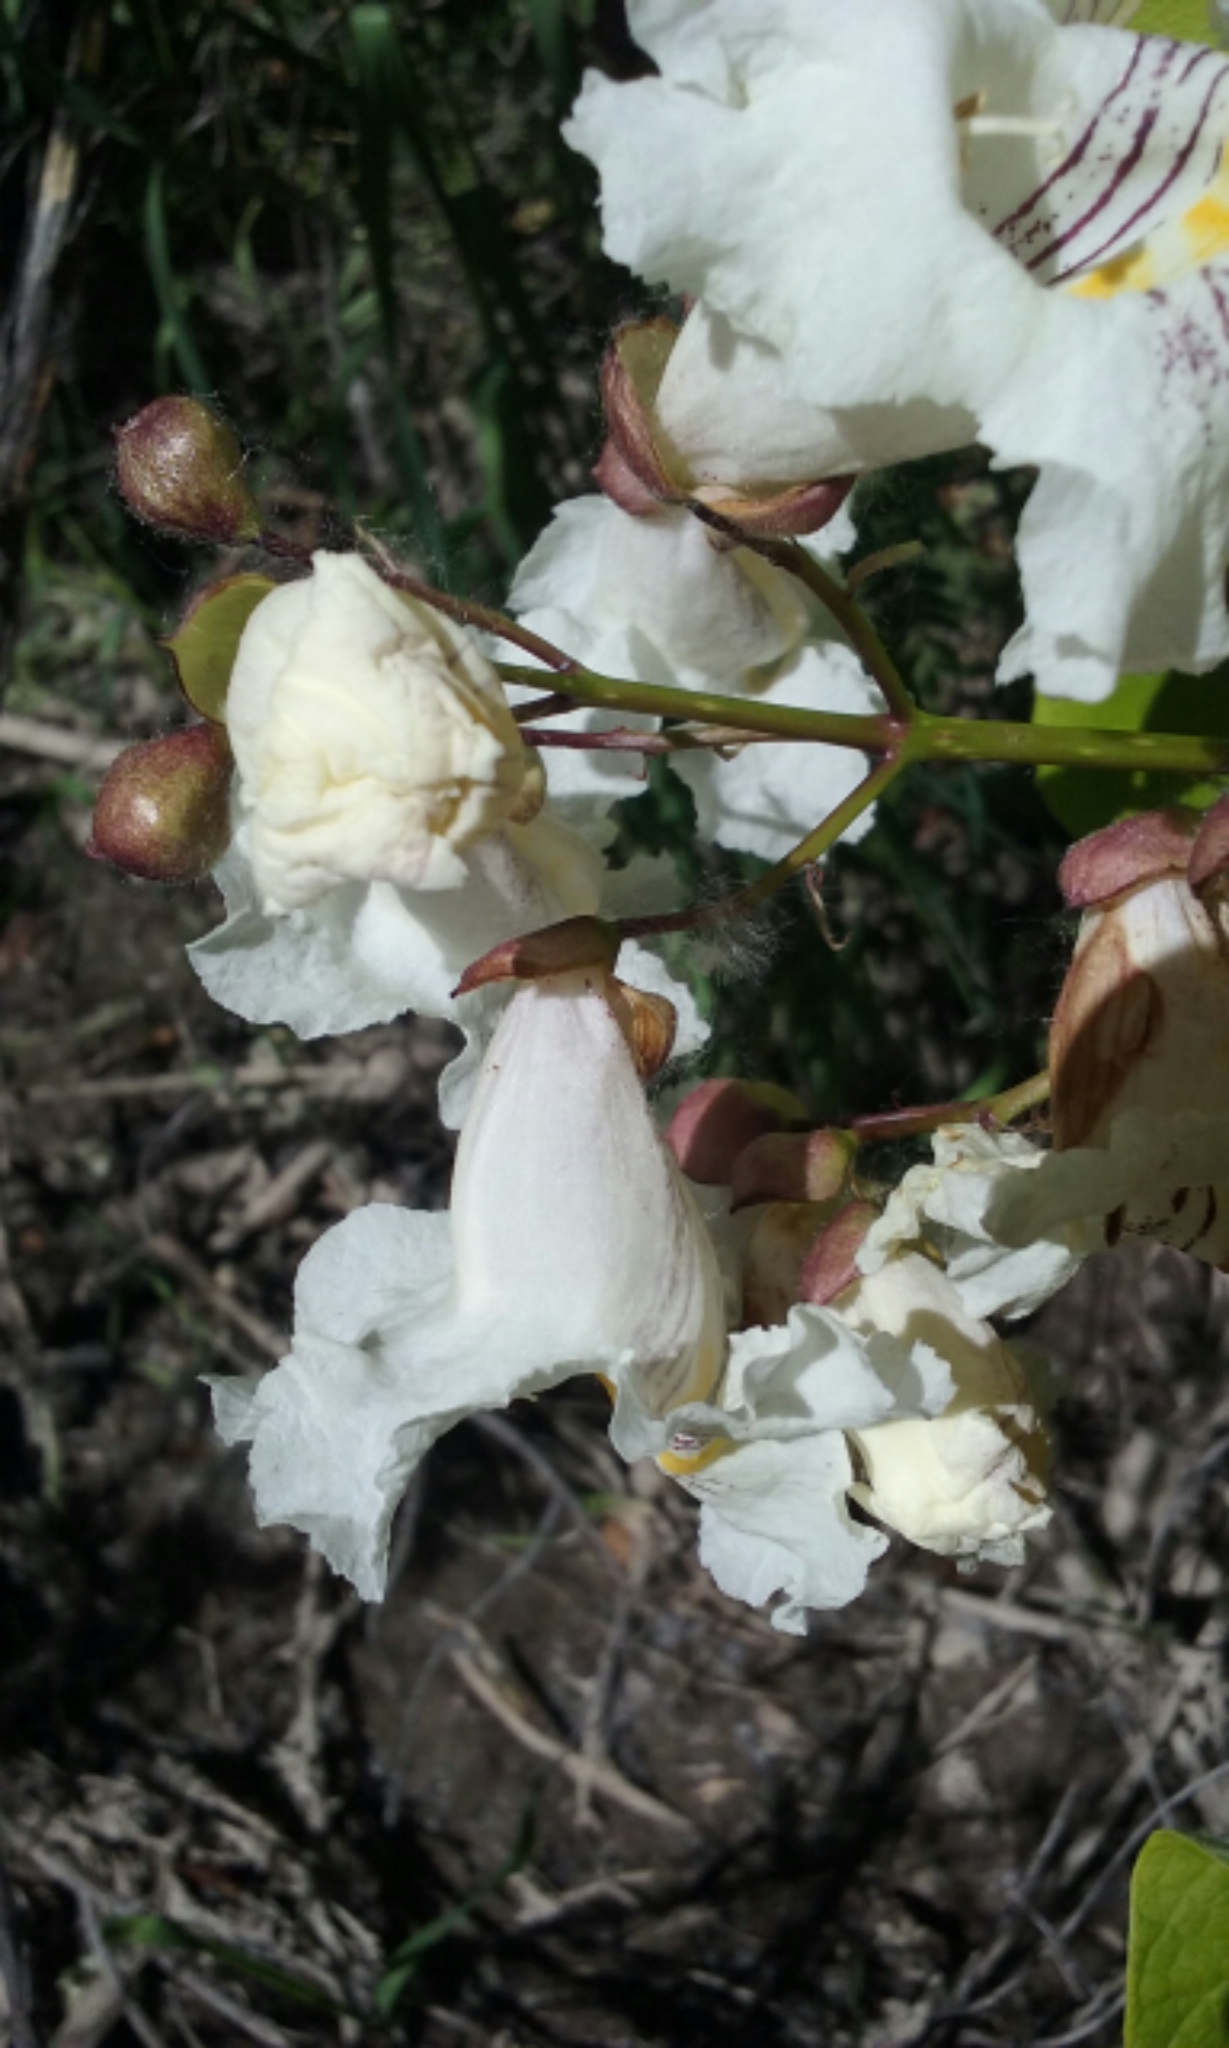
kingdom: Plantae
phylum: Tracheophyta
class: Magnoliopsida
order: Lamiales
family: Bignoniaceae
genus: Catalpa
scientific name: Catalpa speciosa
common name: Northern catalpa
